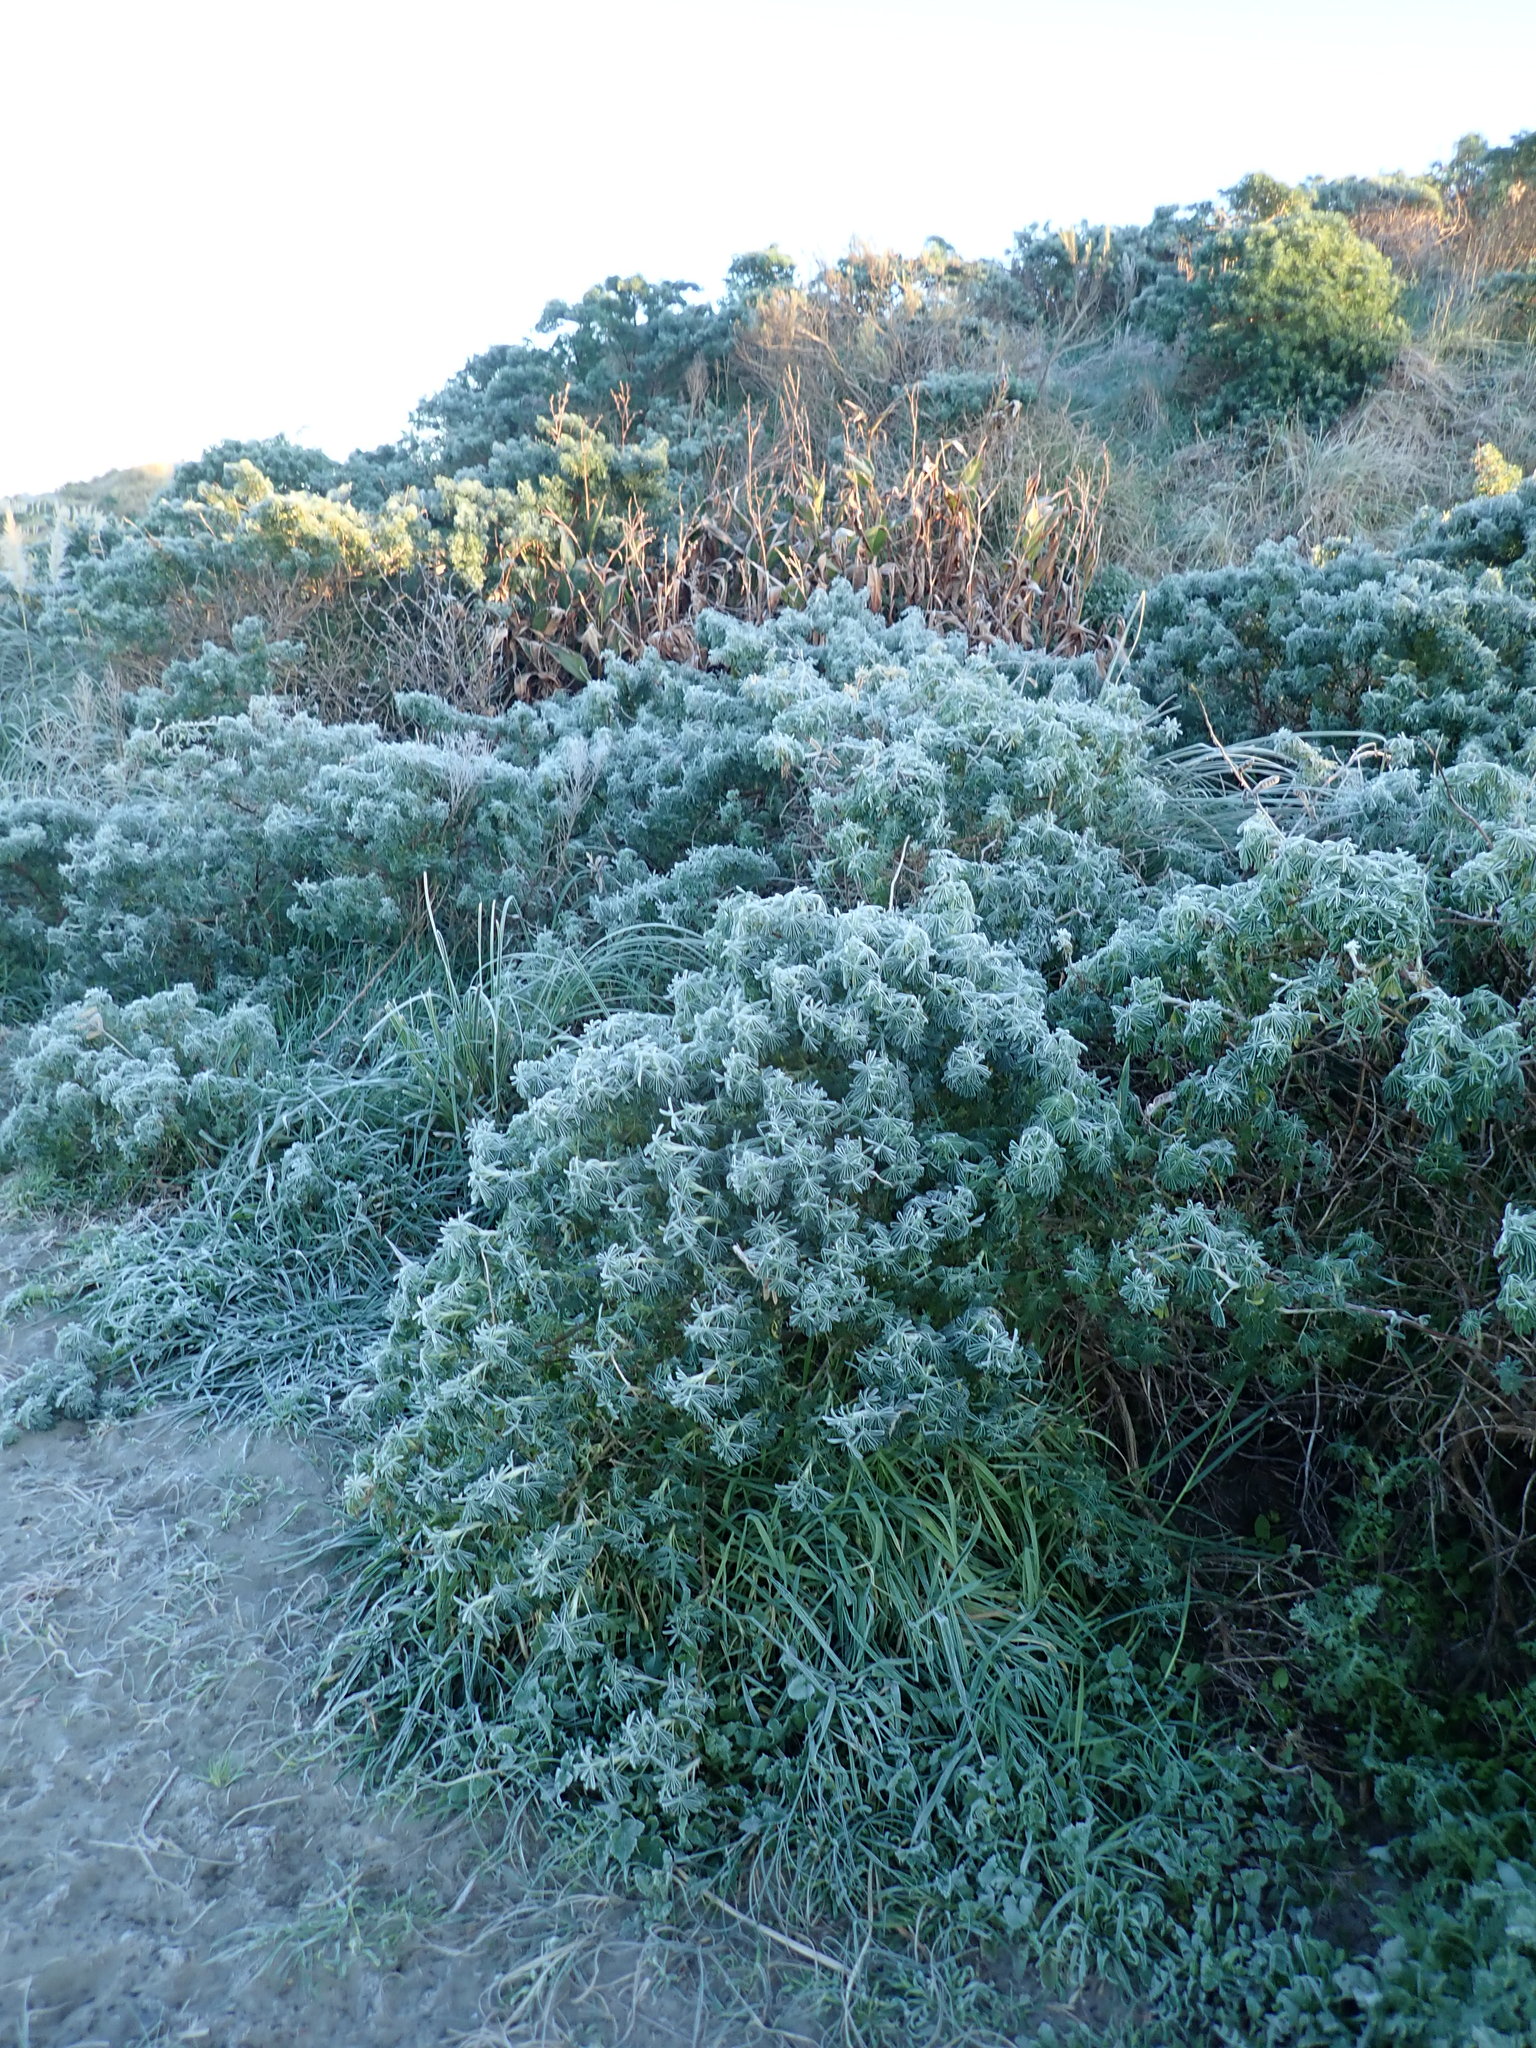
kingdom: Plantae
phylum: Tracheophyta
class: Magnoliopsida
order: Fabales
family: Fabaceae
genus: Lupinus
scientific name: Lupinus arboreus
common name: Yellow bush lupine
